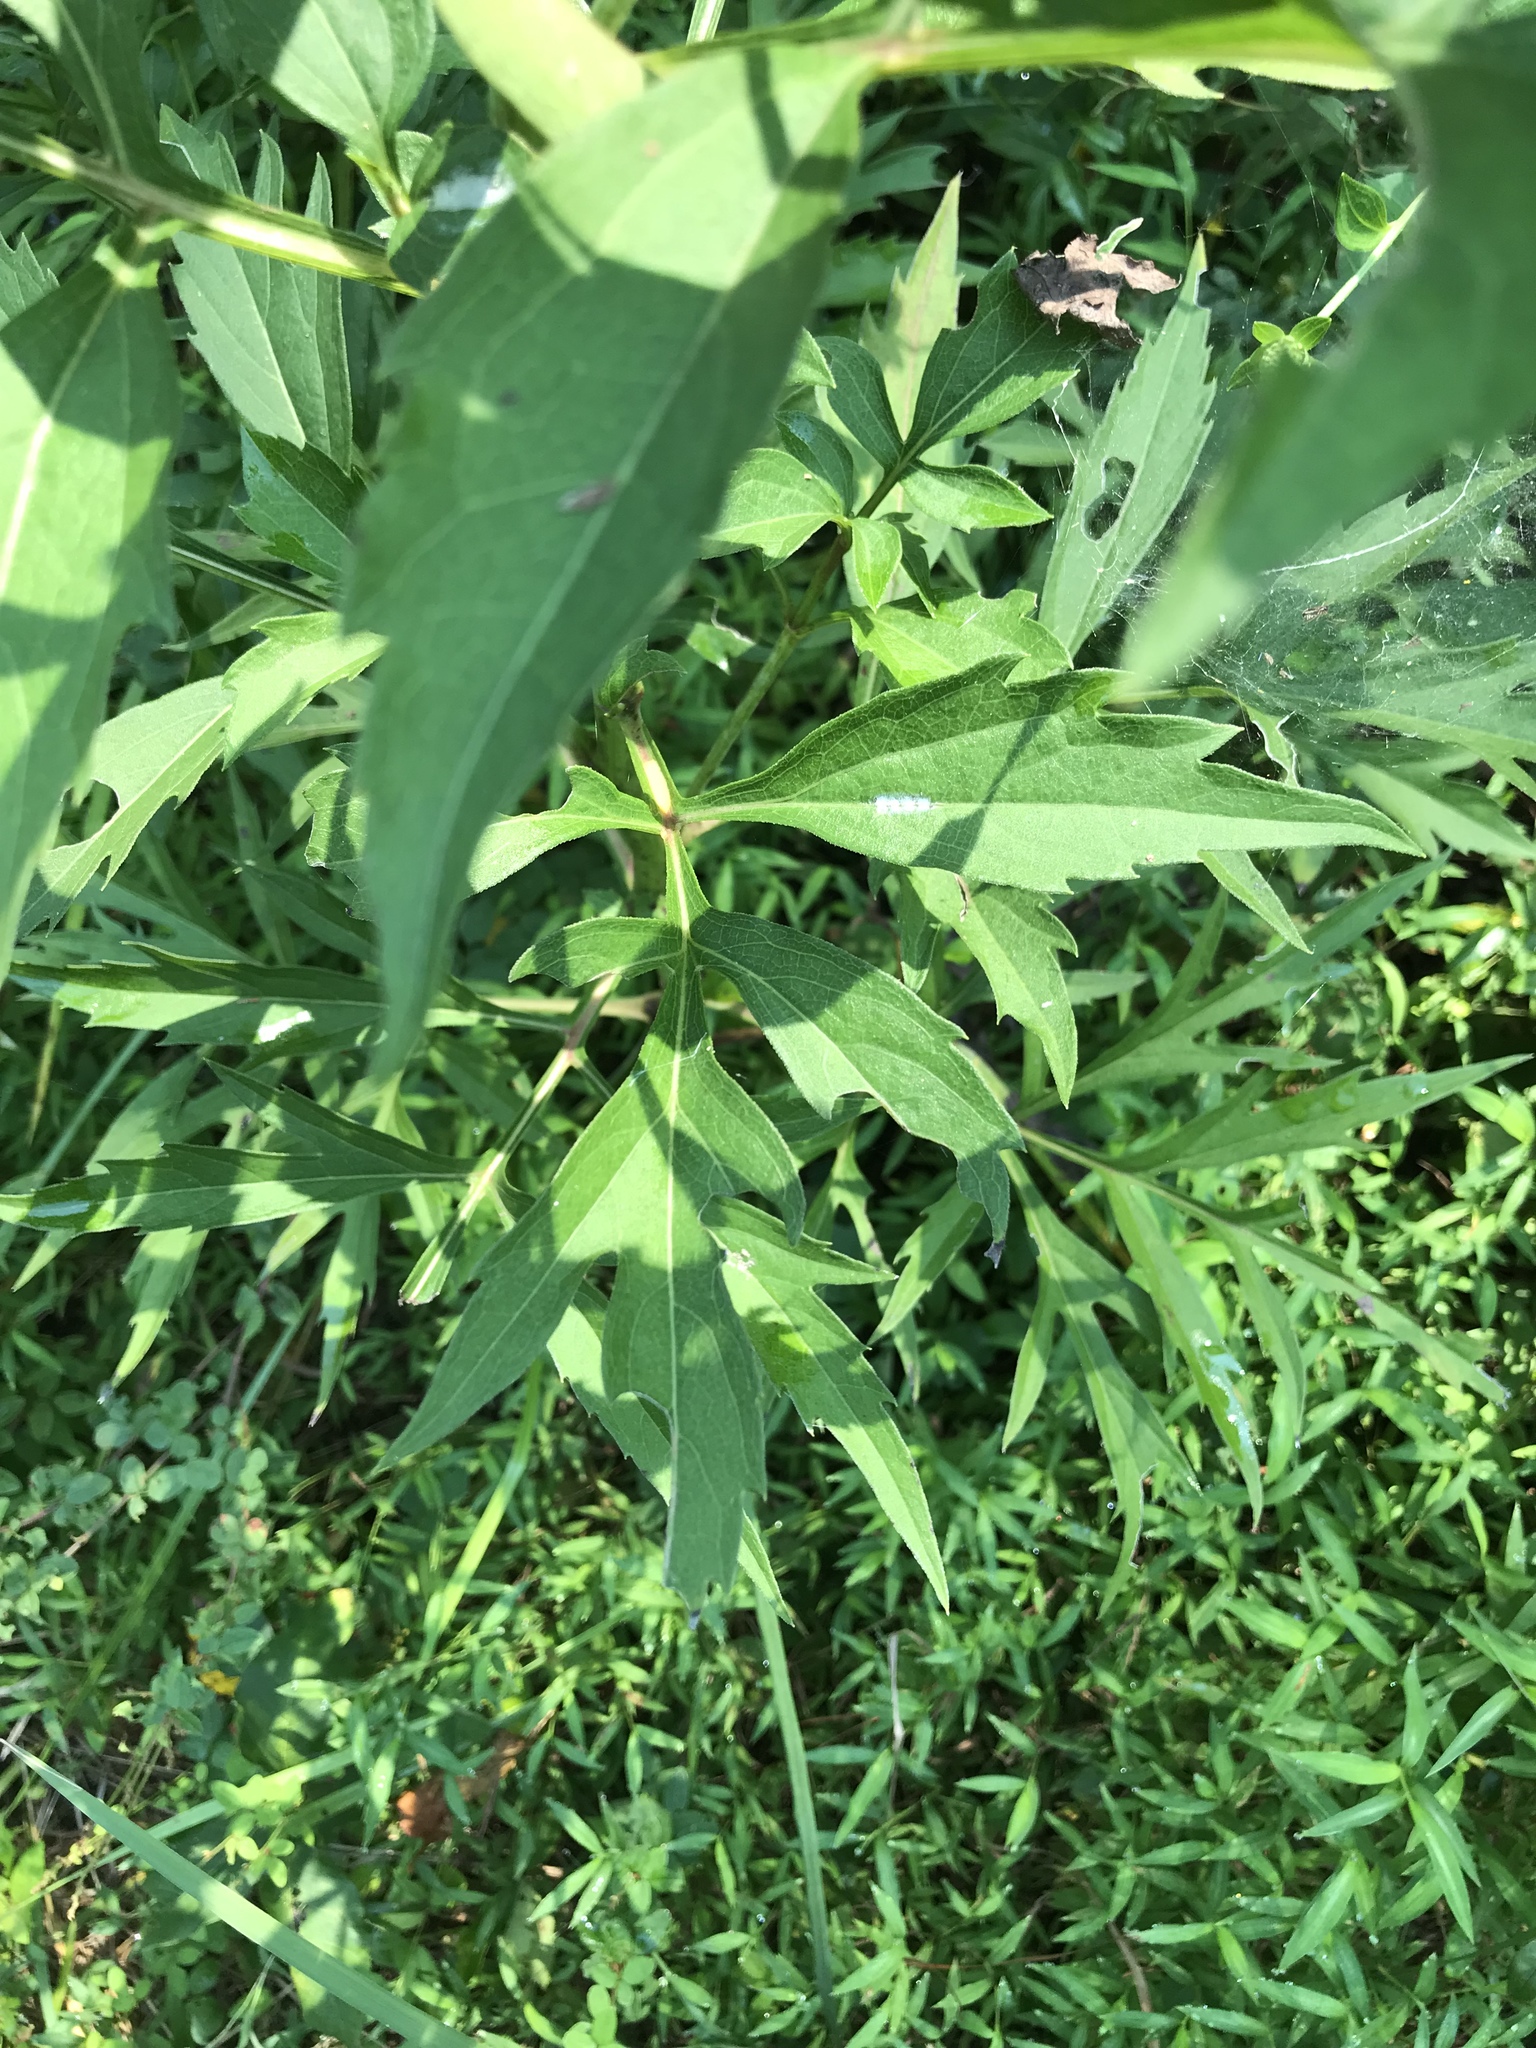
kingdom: Plantae
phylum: Tracheophyta
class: Magnoliopsida
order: Asterales
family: Asteraceae
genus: Rudbeckia
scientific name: Rudbeckia laciniata
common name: Coneflower
